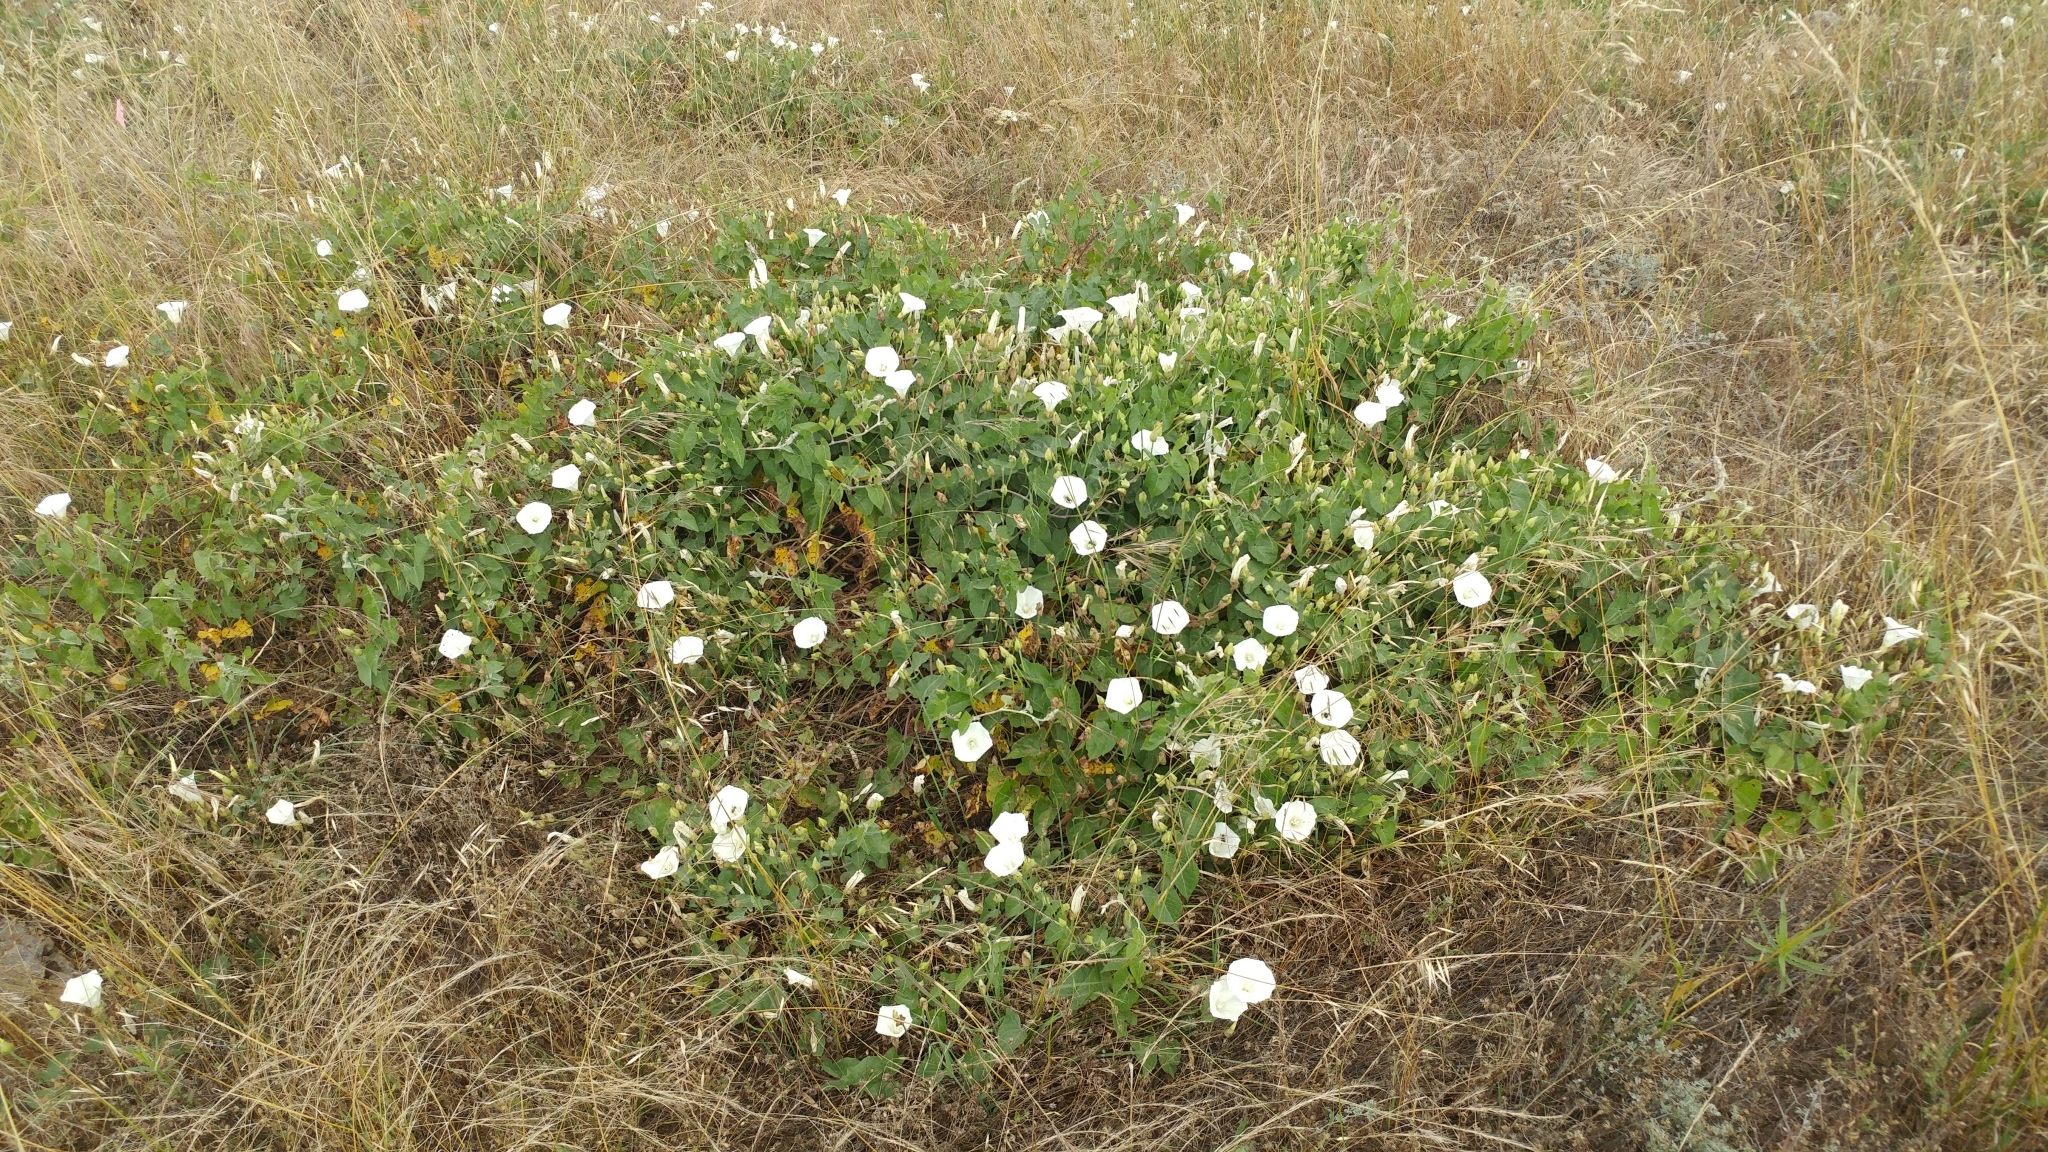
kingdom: Plantae
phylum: Tracheophyta
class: Magnoliopsida
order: Solanales
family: Convolvulaceae
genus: Calystegia
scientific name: Calystegia macrostegia
